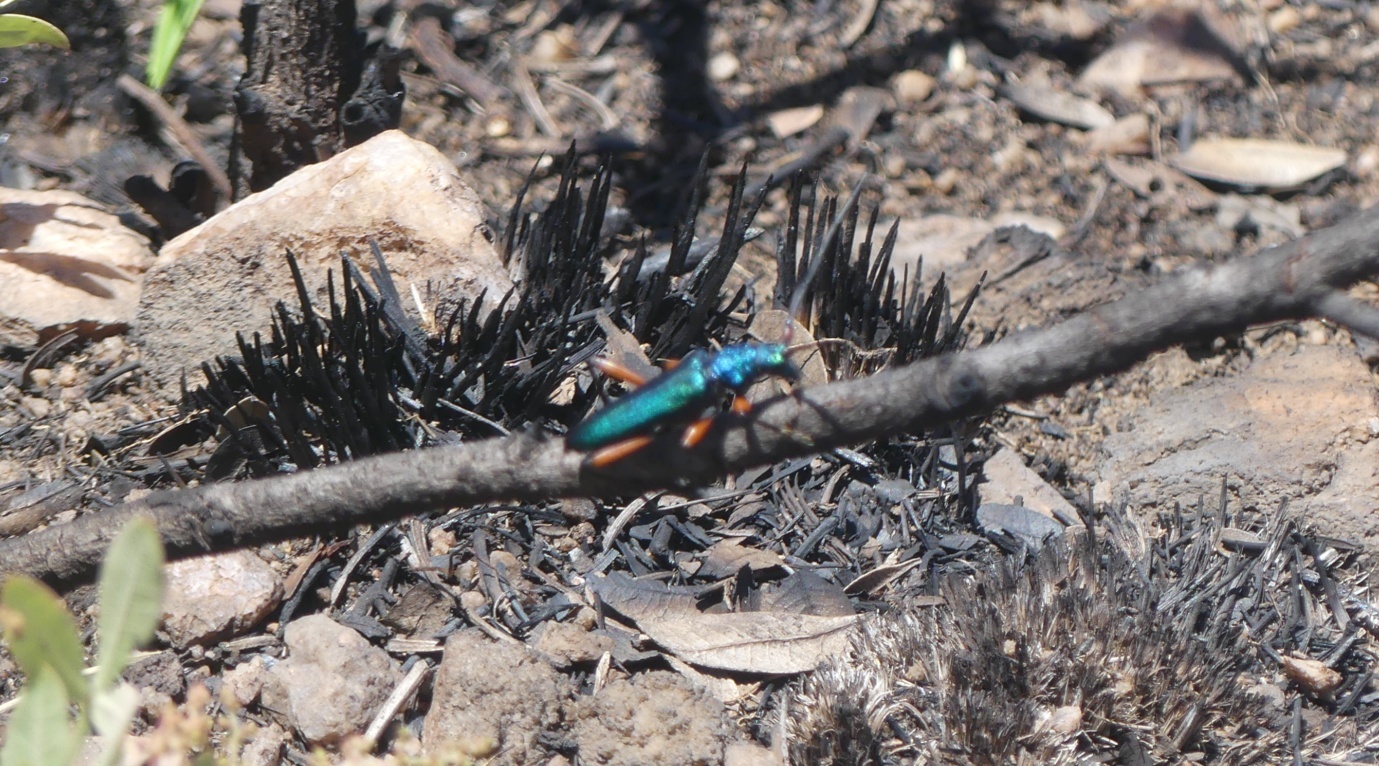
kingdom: Animalia
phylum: Arthropoda
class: Insecta
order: Coleoptera
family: Cerambycidae
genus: Philematium
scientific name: Philematium virens
